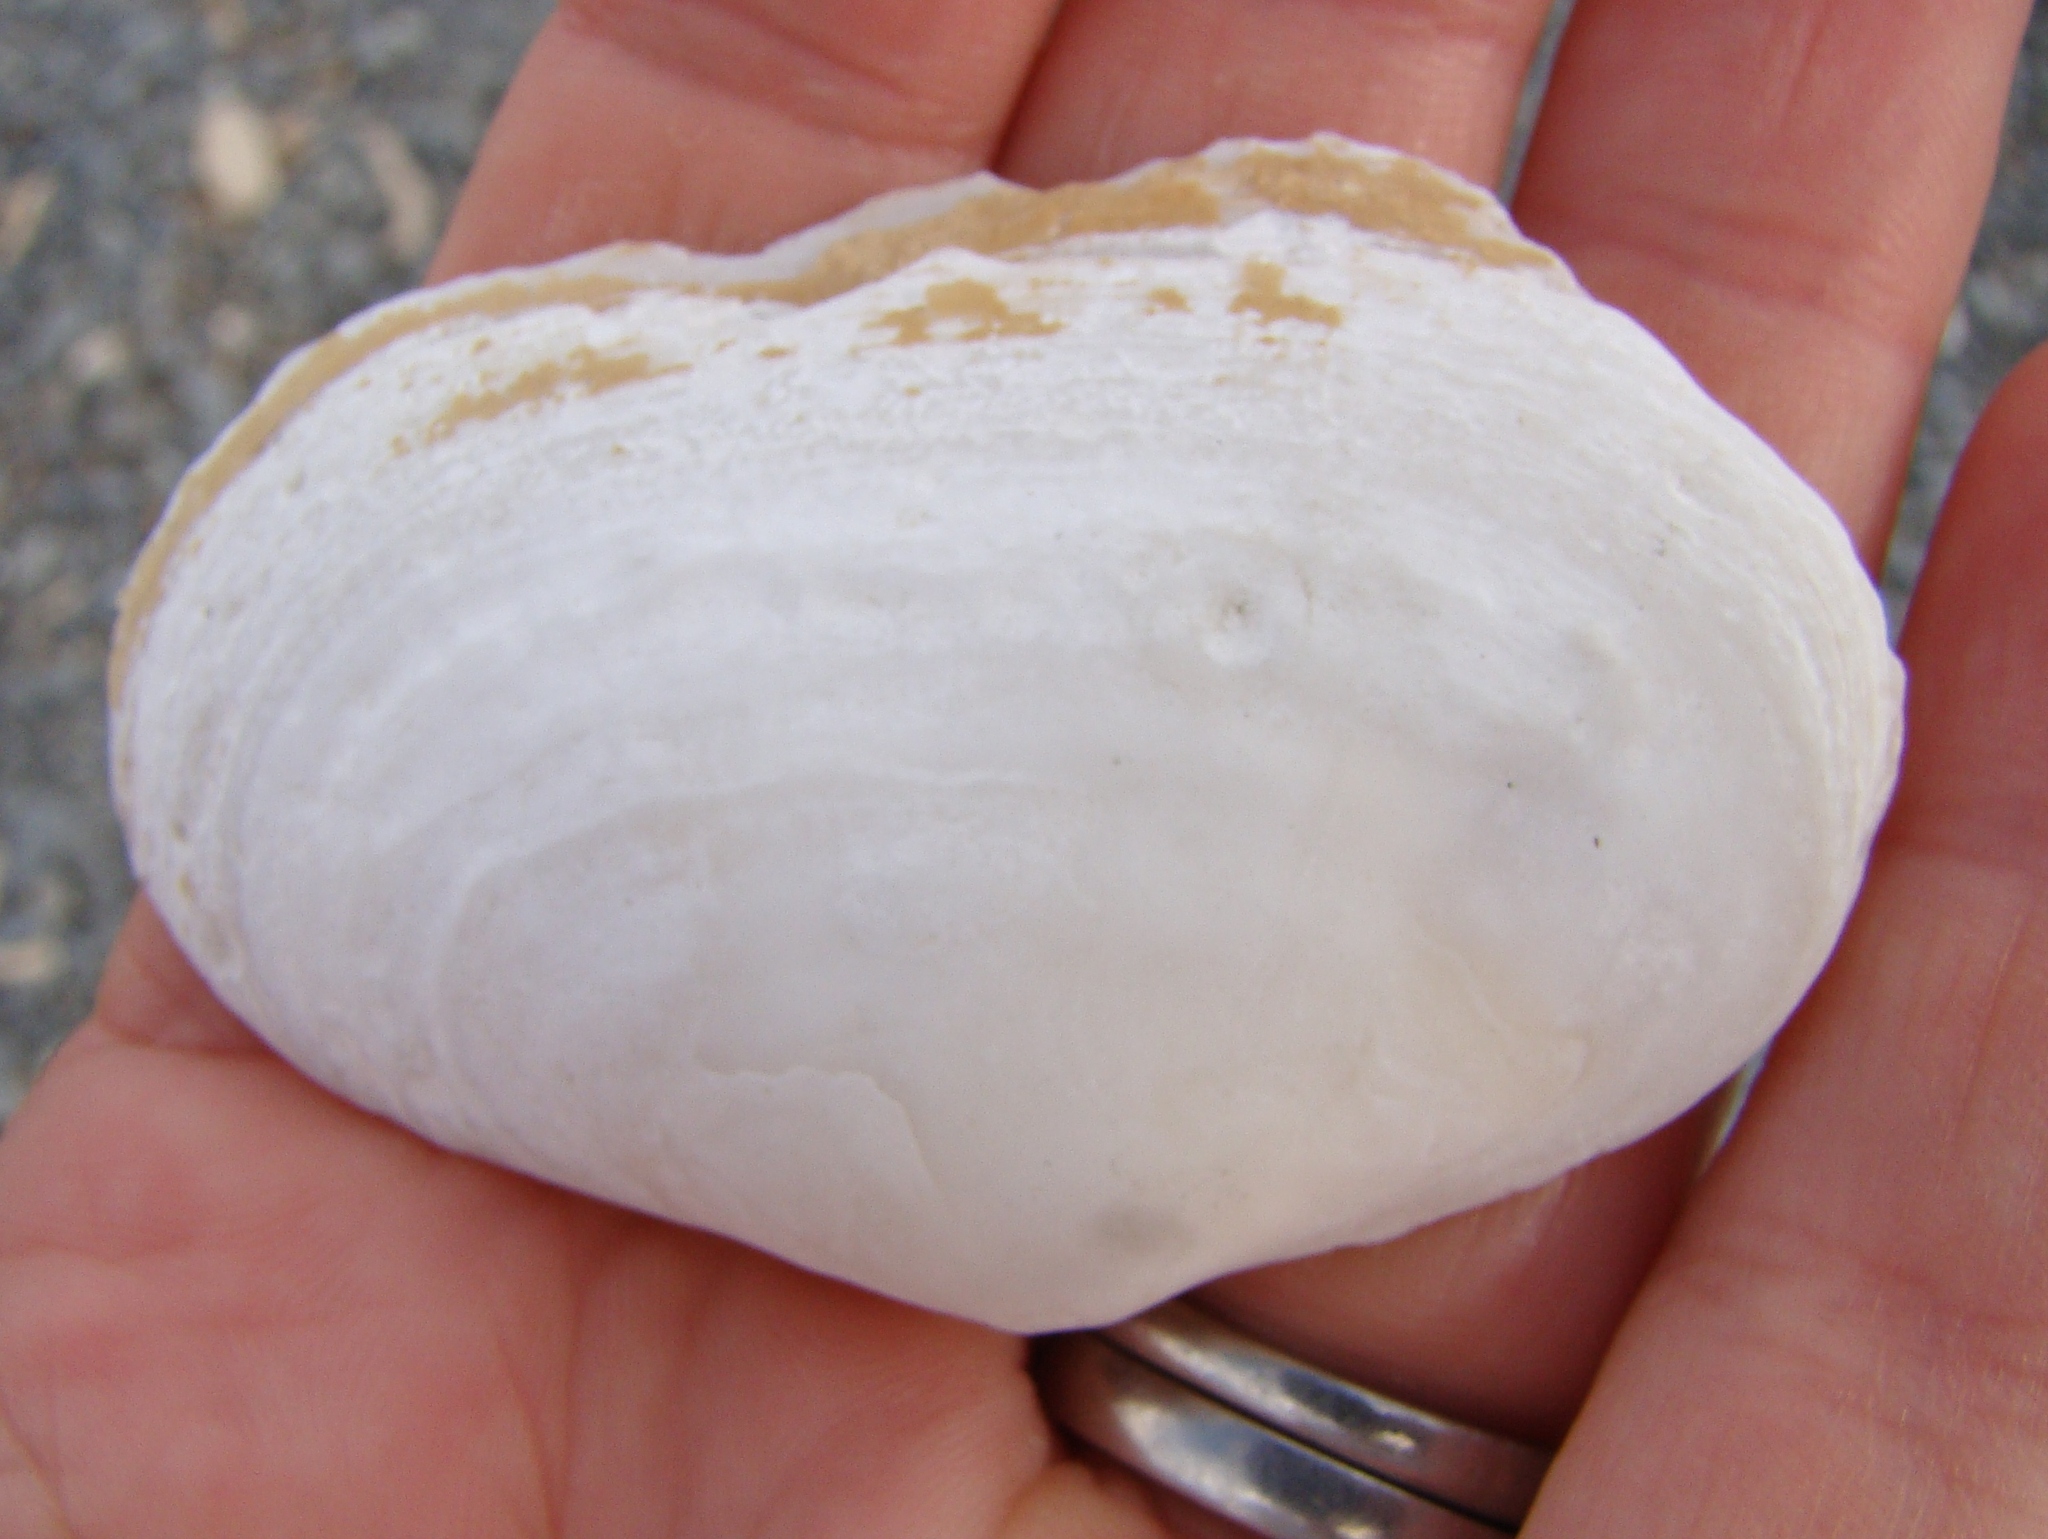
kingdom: Animalia
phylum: Mollusca
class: Bivalvia
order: Venerida
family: Mesodesmatidae
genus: Paphies
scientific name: Paphies australis
